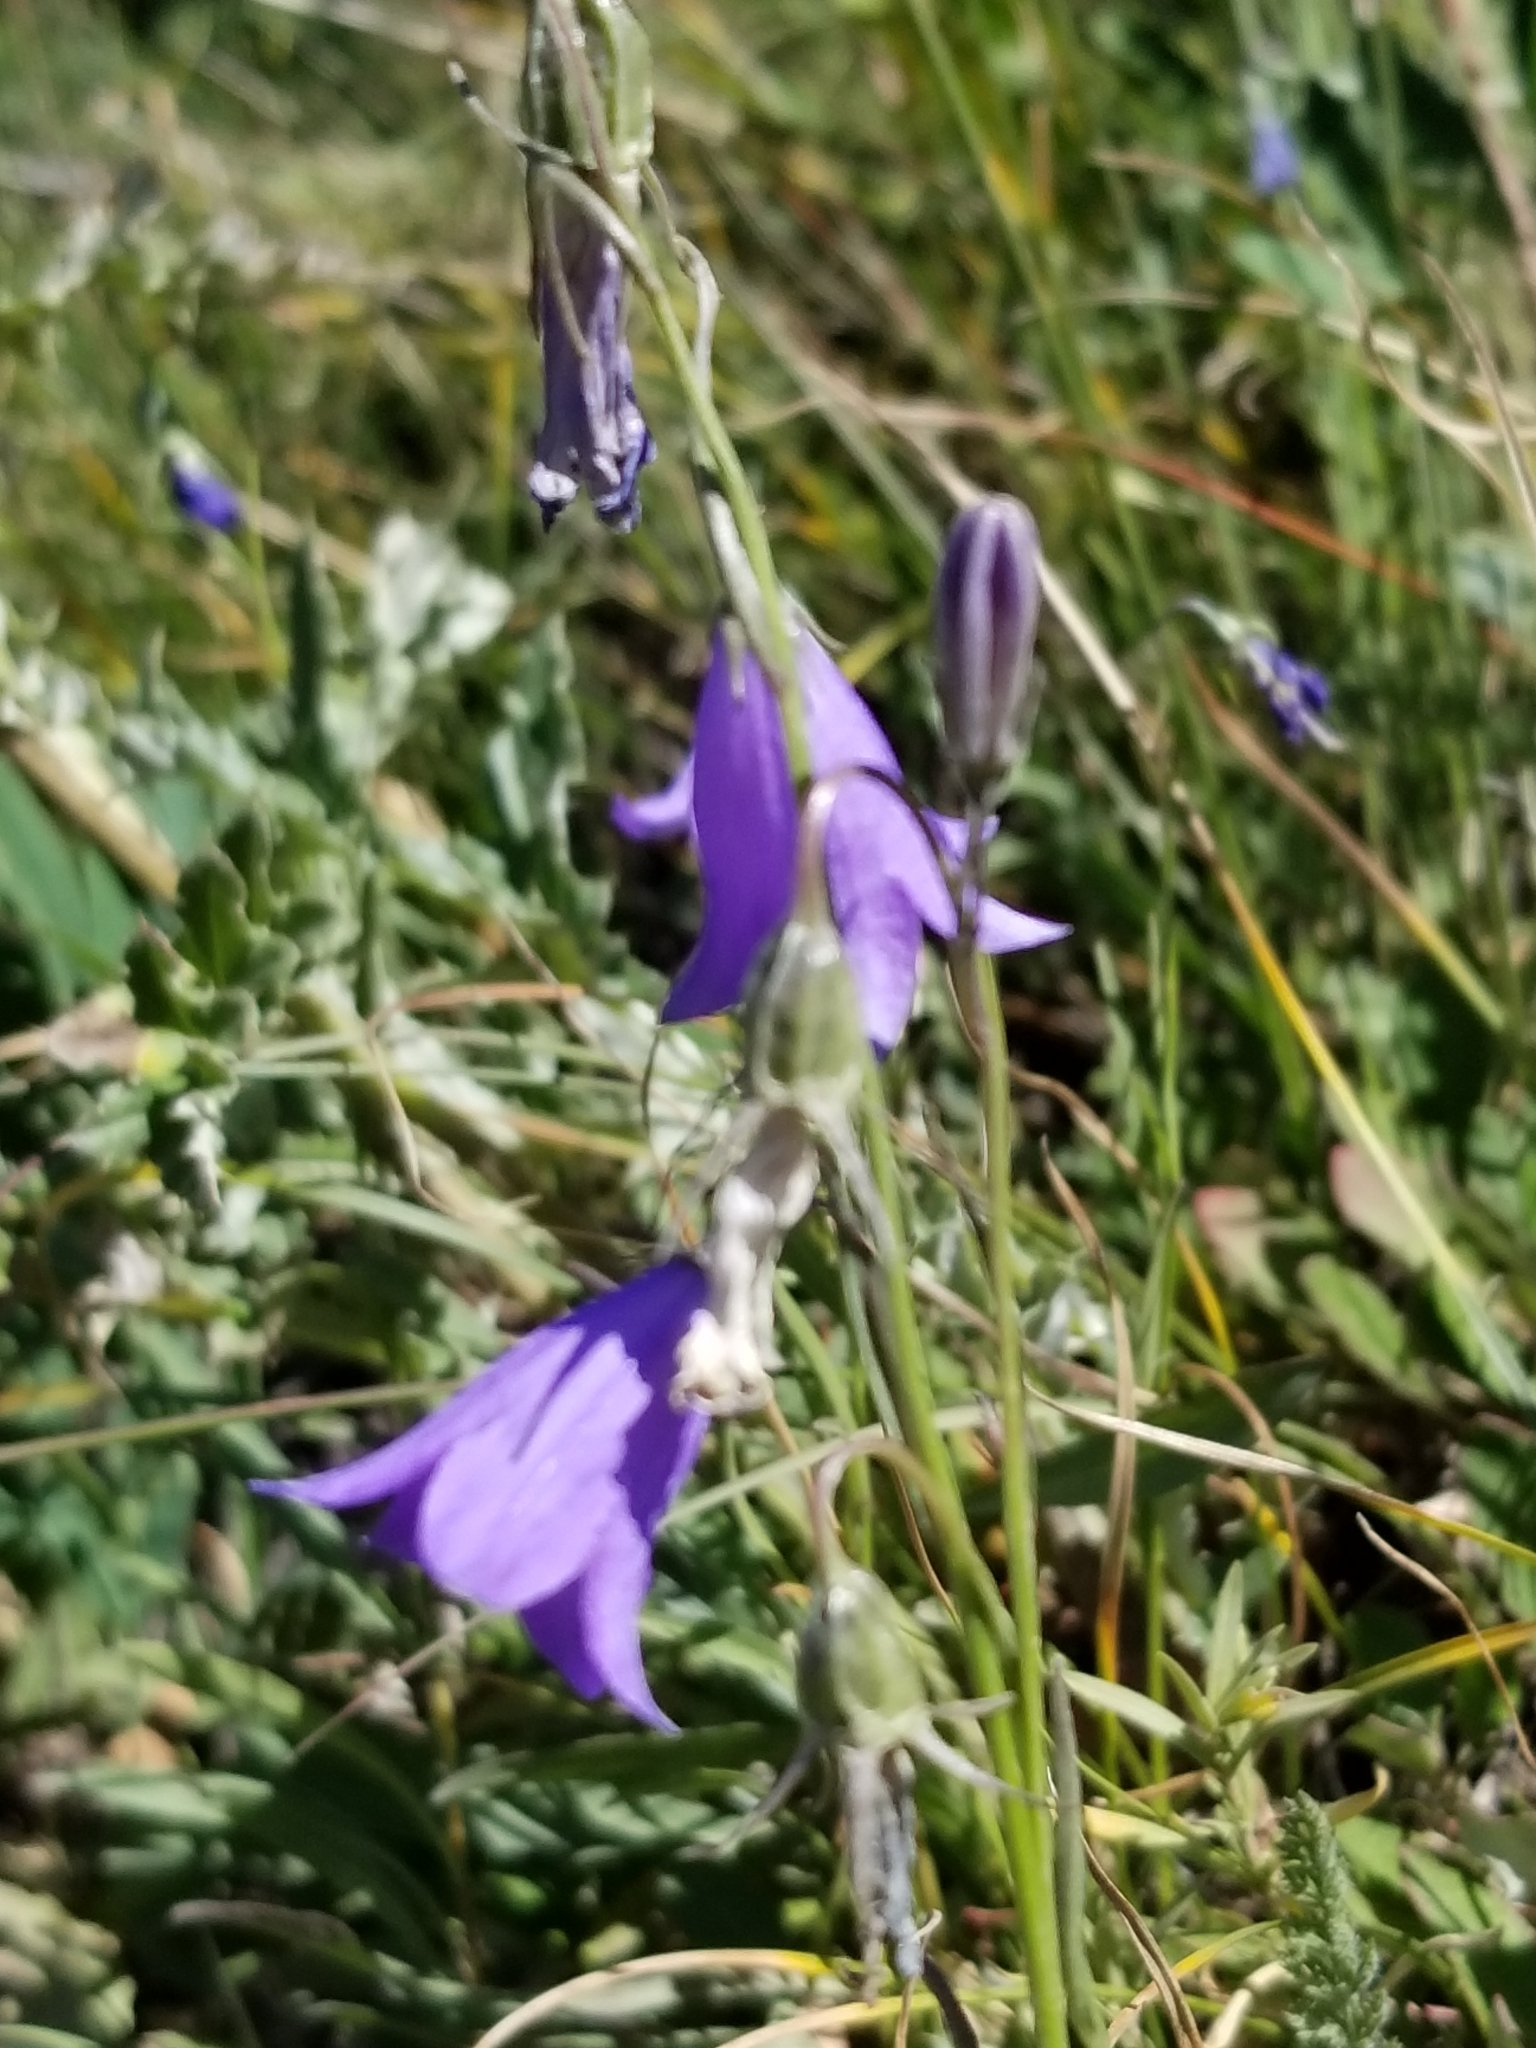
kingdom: Plantae
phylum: Tracheophyta
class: Magnoliopsida
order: Asterales
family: Campanulaceae
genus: Campanula
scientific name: Campanula petiolata
